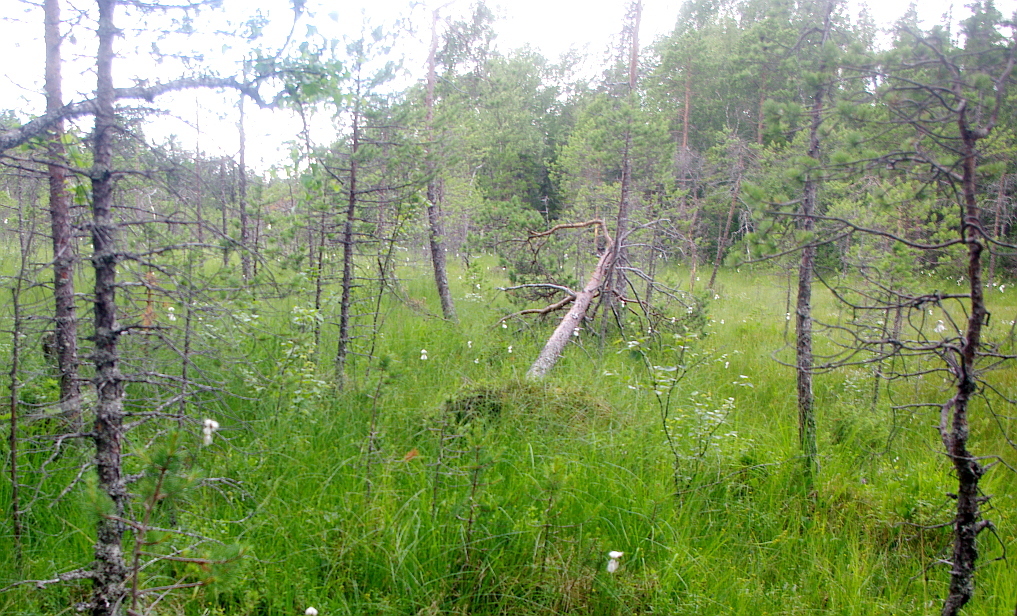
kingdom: Plantae
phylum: Tracheophyta
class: Pinopsida
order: Pinales
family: Pinaceae
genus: Pinus
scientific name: Pinus sylvestris
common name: Scots pine
